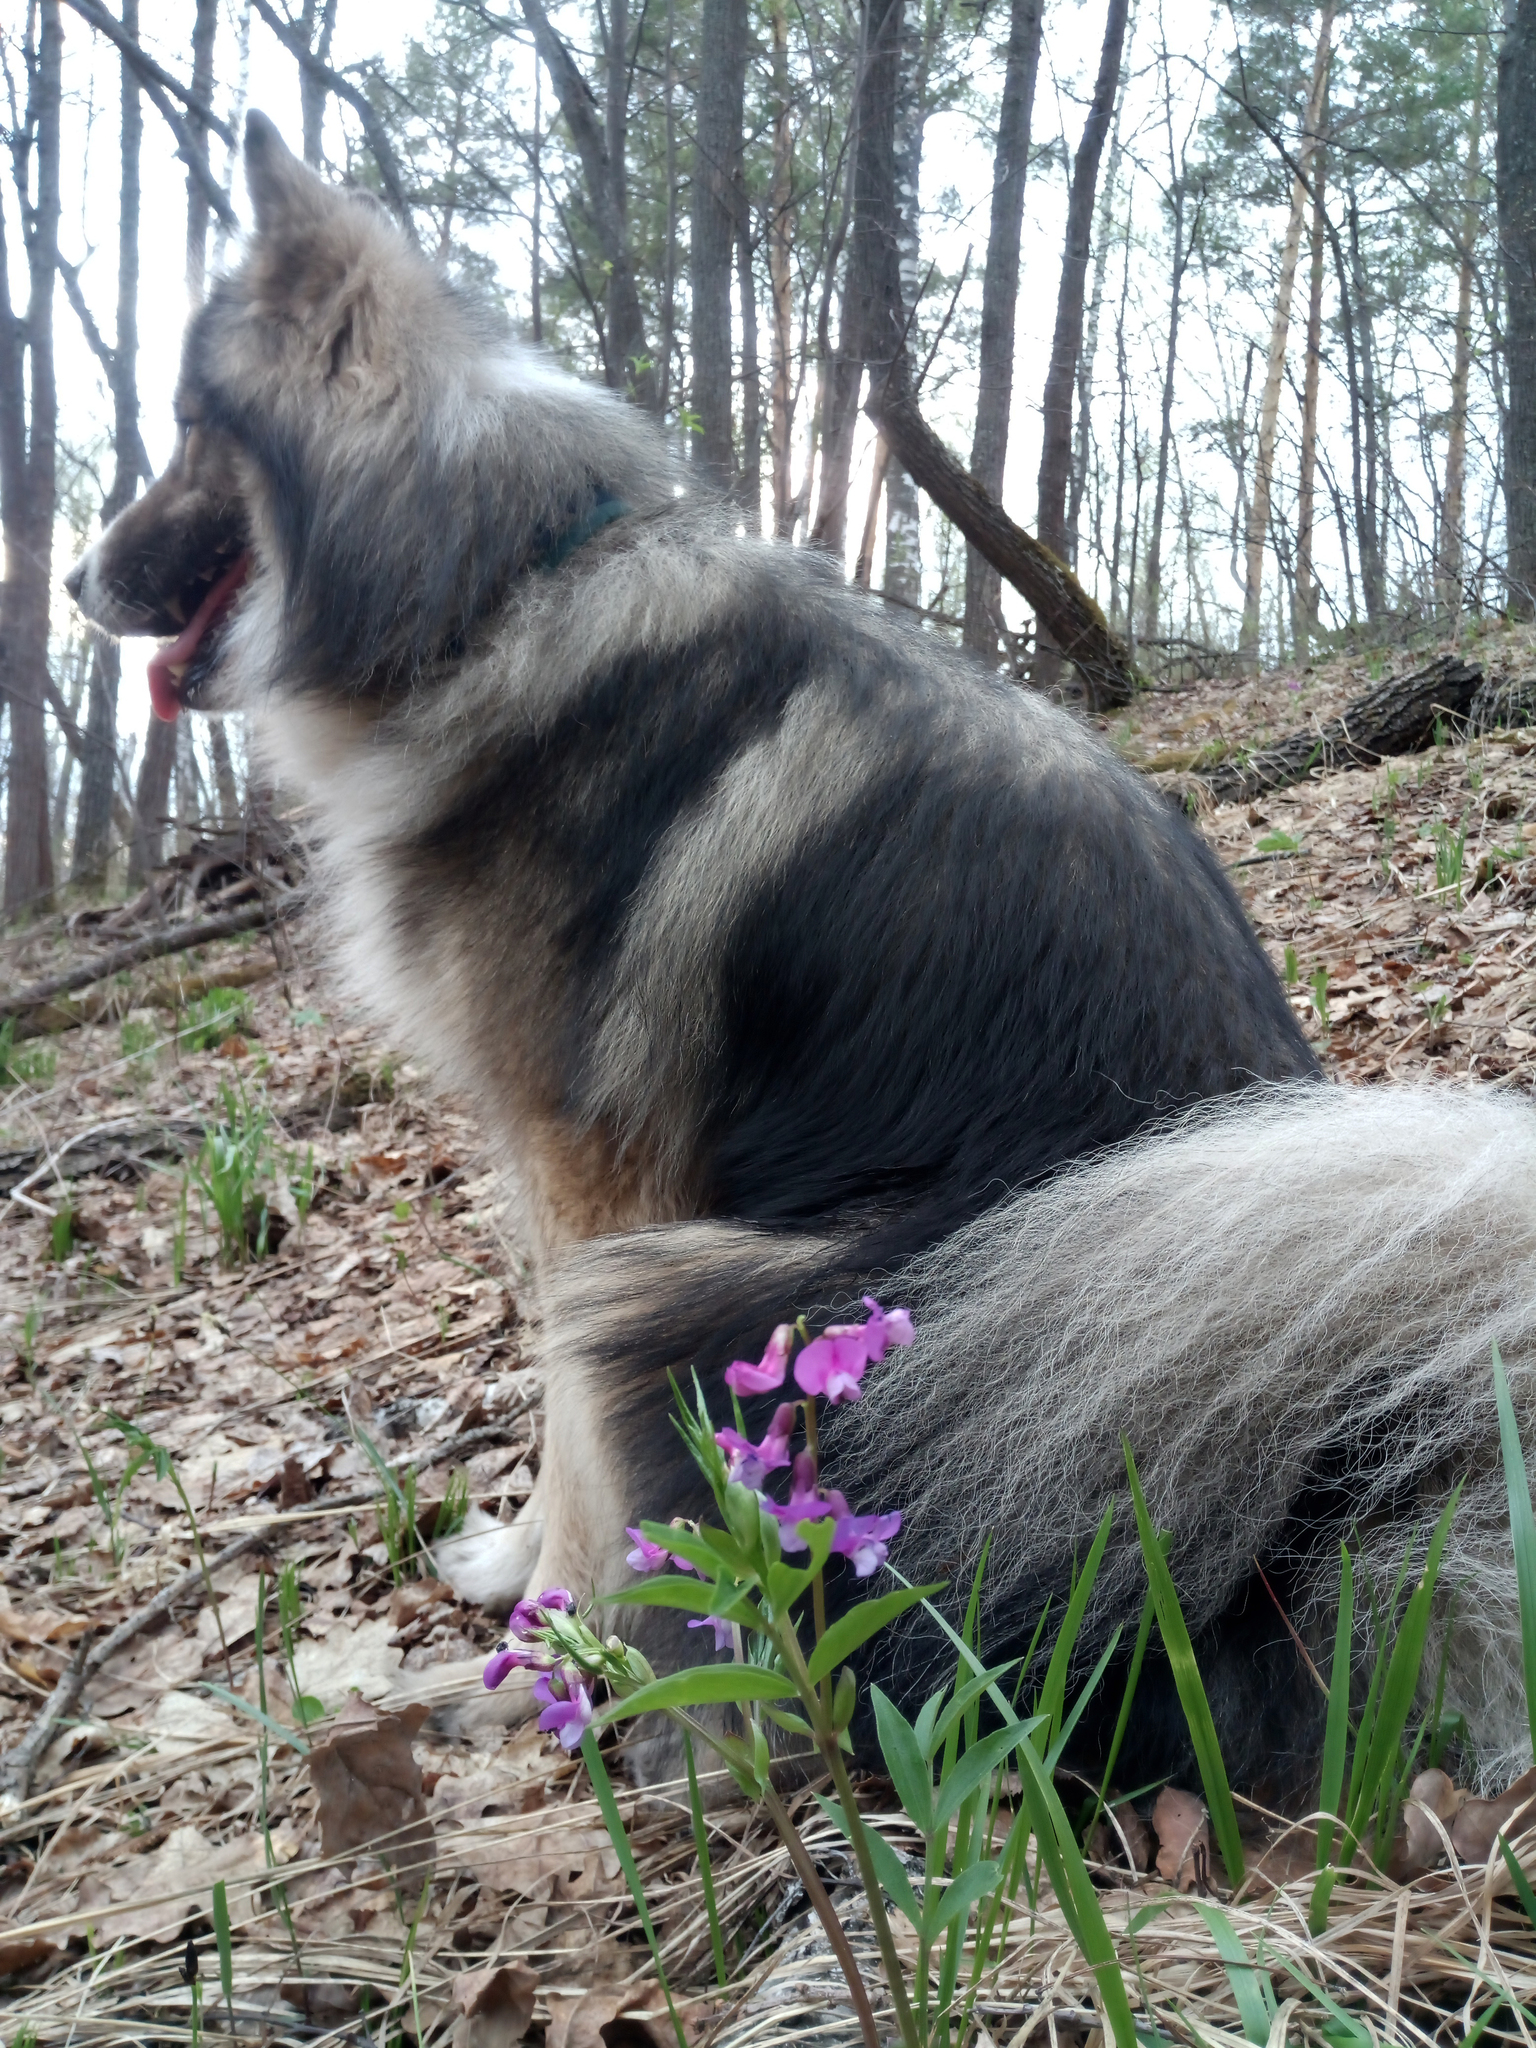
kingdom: Plantae
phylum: Tracheophyta
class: Magnoliopsida
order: Fabales
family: Fabaceae
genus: Lathyrus
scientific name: Lathyrus vernus
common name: Spring pea
